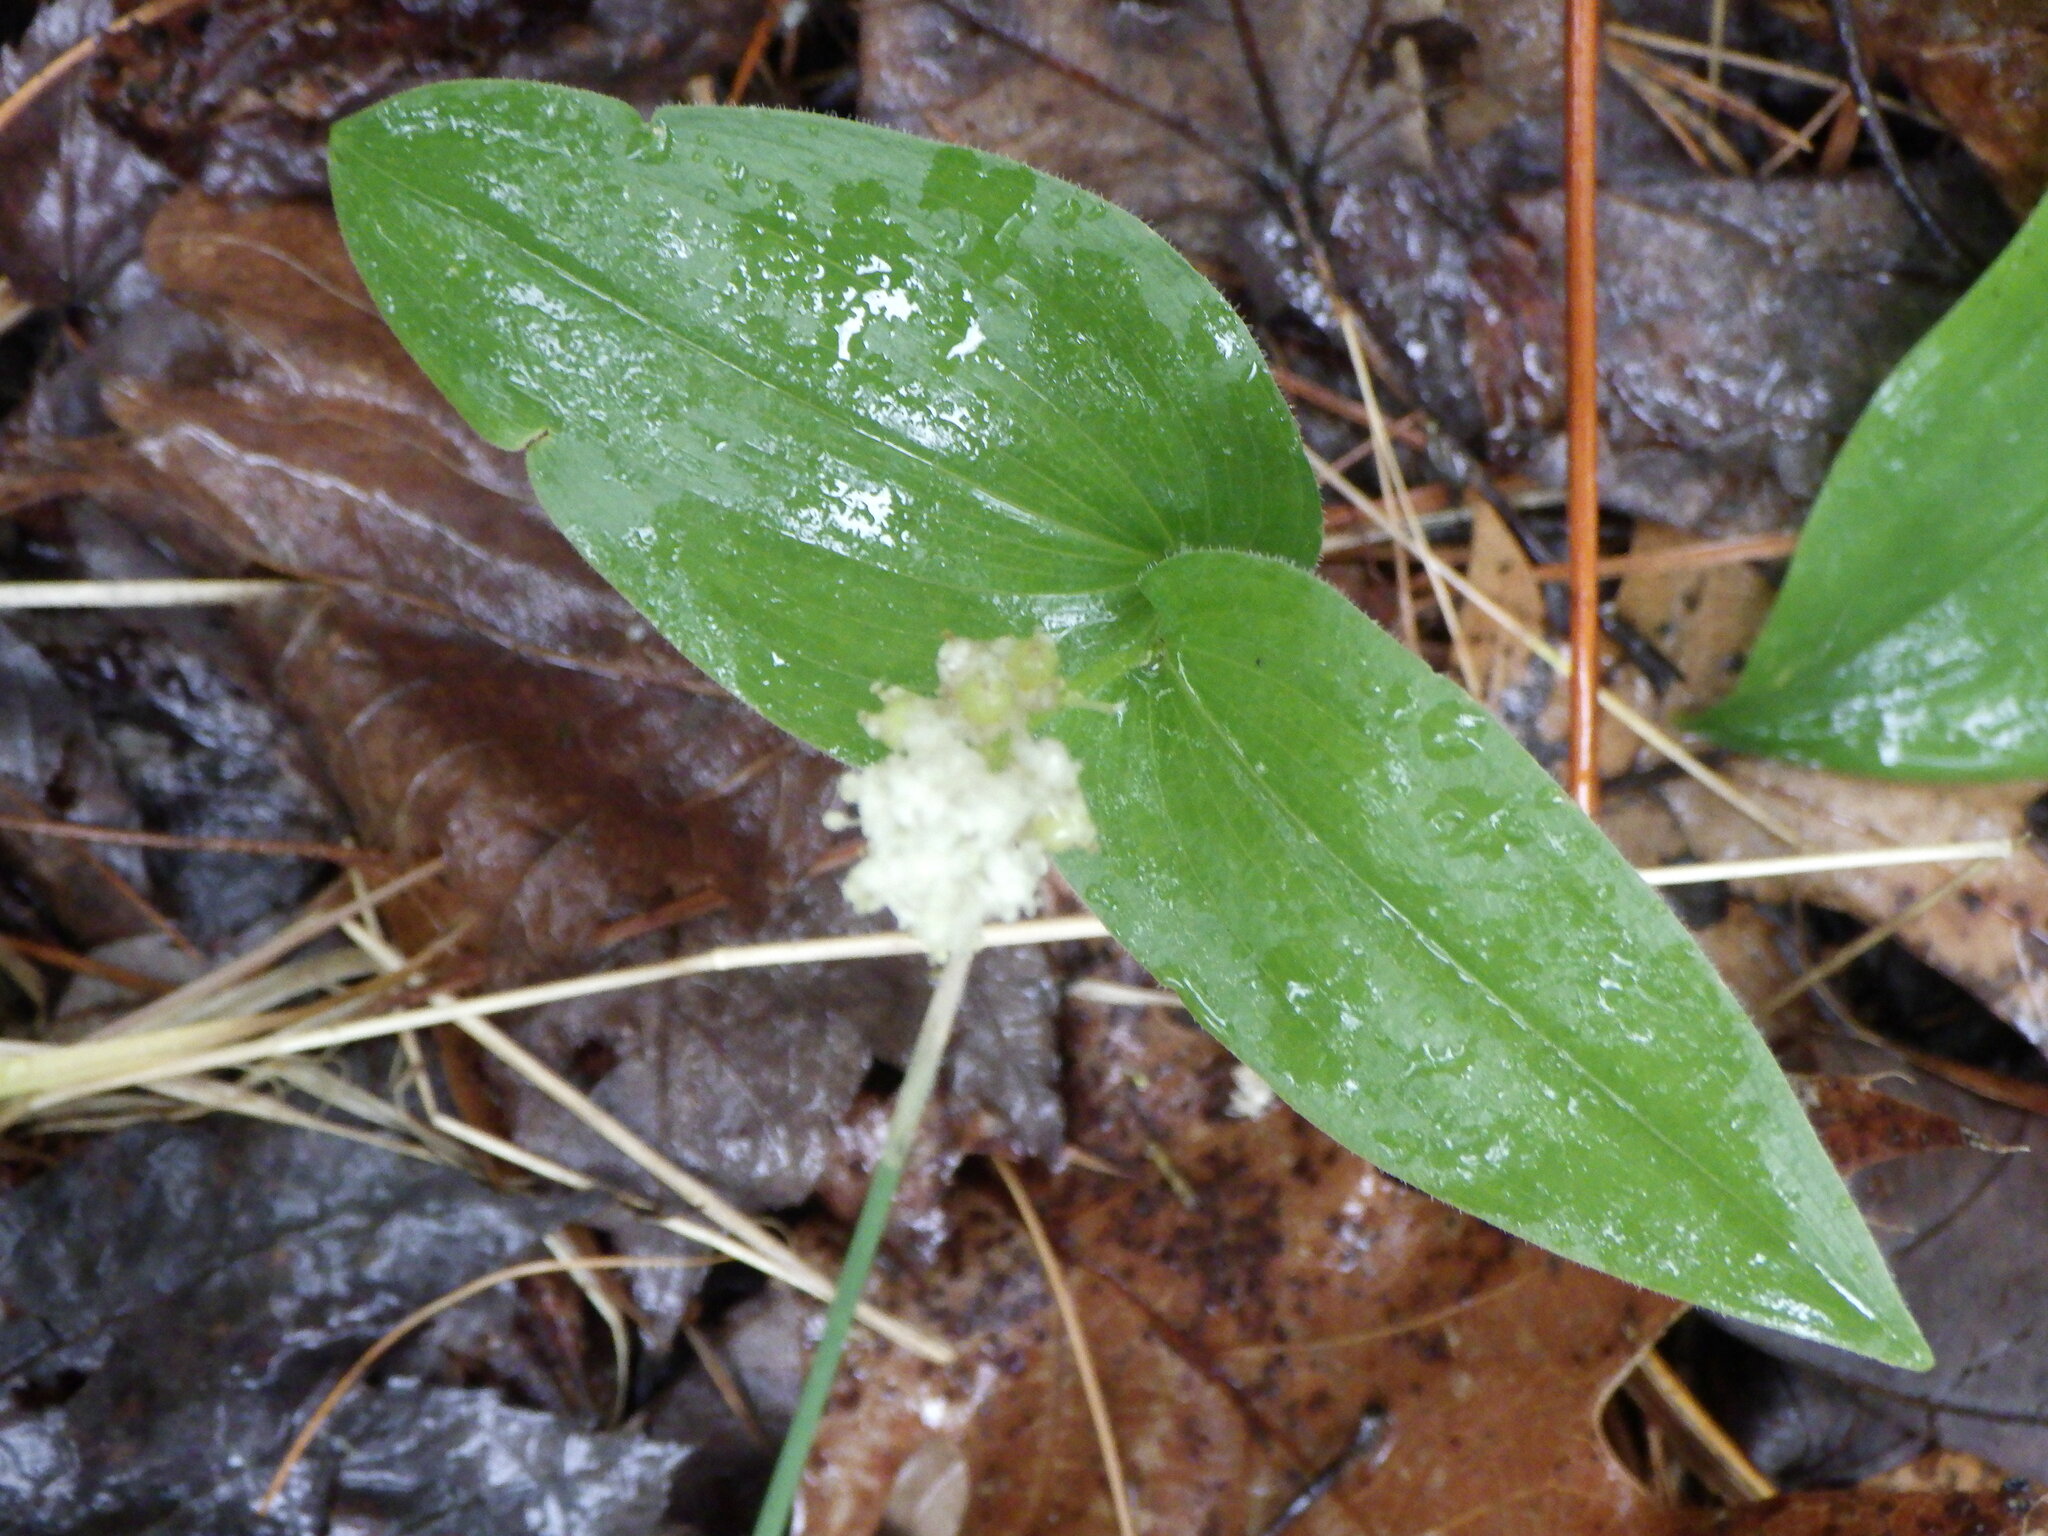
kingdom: Plantae
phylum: Tracheophyta
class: Liliopsida
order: Asparagales
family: Asparagaceae
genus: Maianthemum
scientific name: Maianthemum canadense
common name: False lily-of-the-valley
